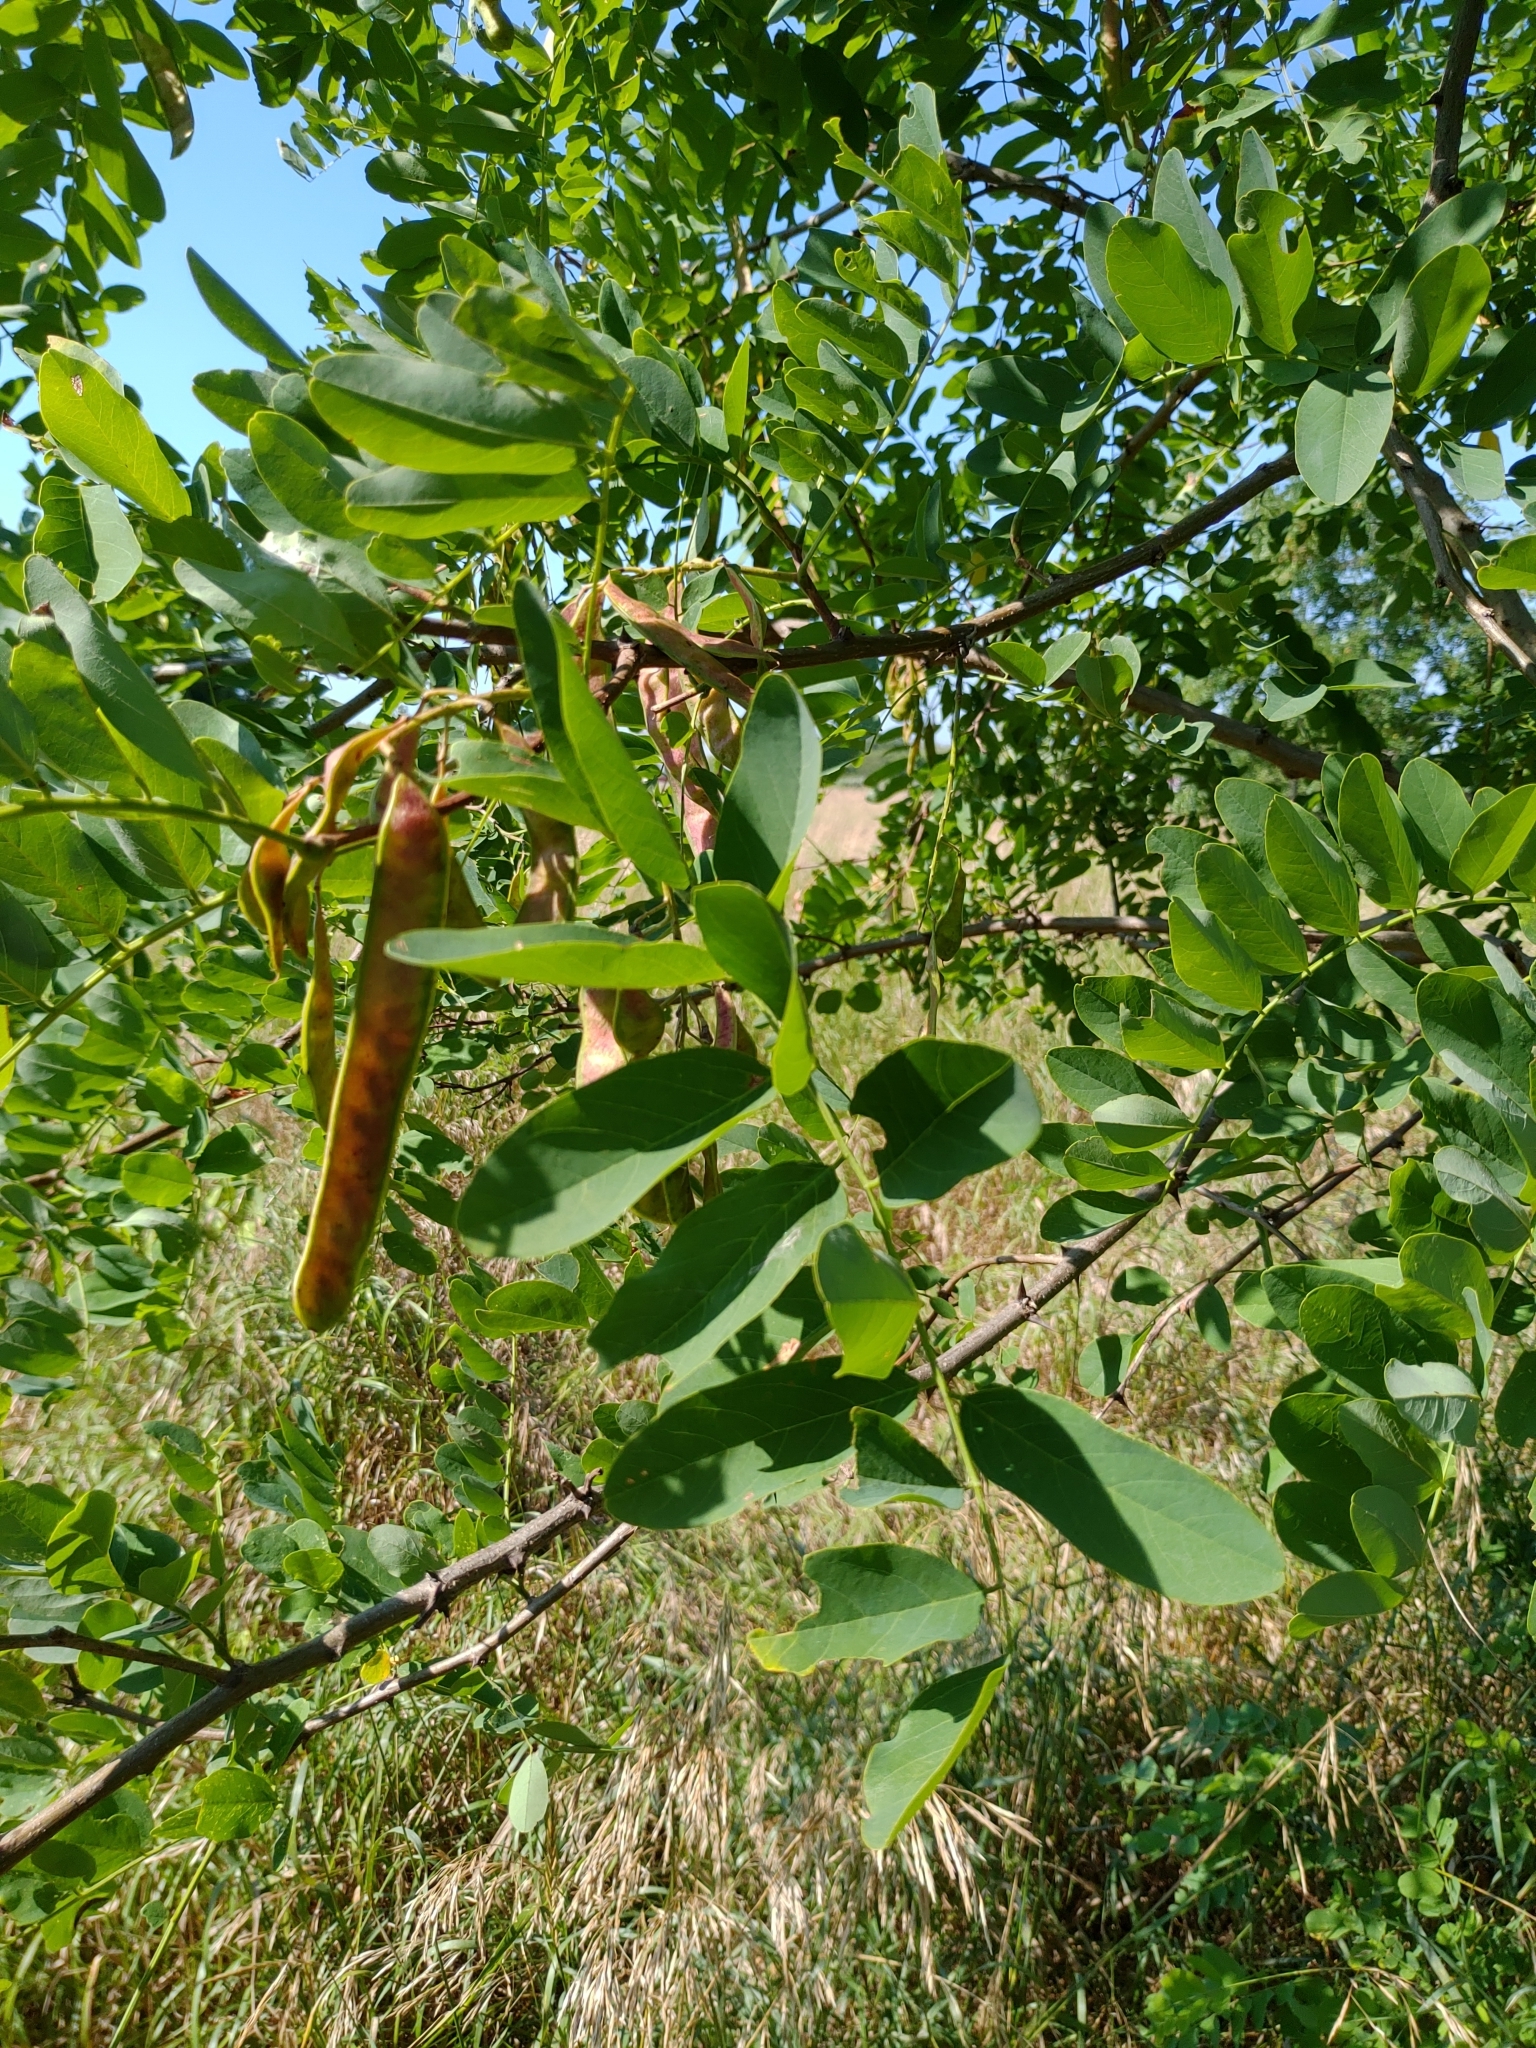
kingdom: Plantae
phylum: Tracheophyta
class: Magnoliopsida
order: Fabales
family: Fabaceae
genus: Robinia
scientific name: Robinia pseudoacacia
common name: Black locust
